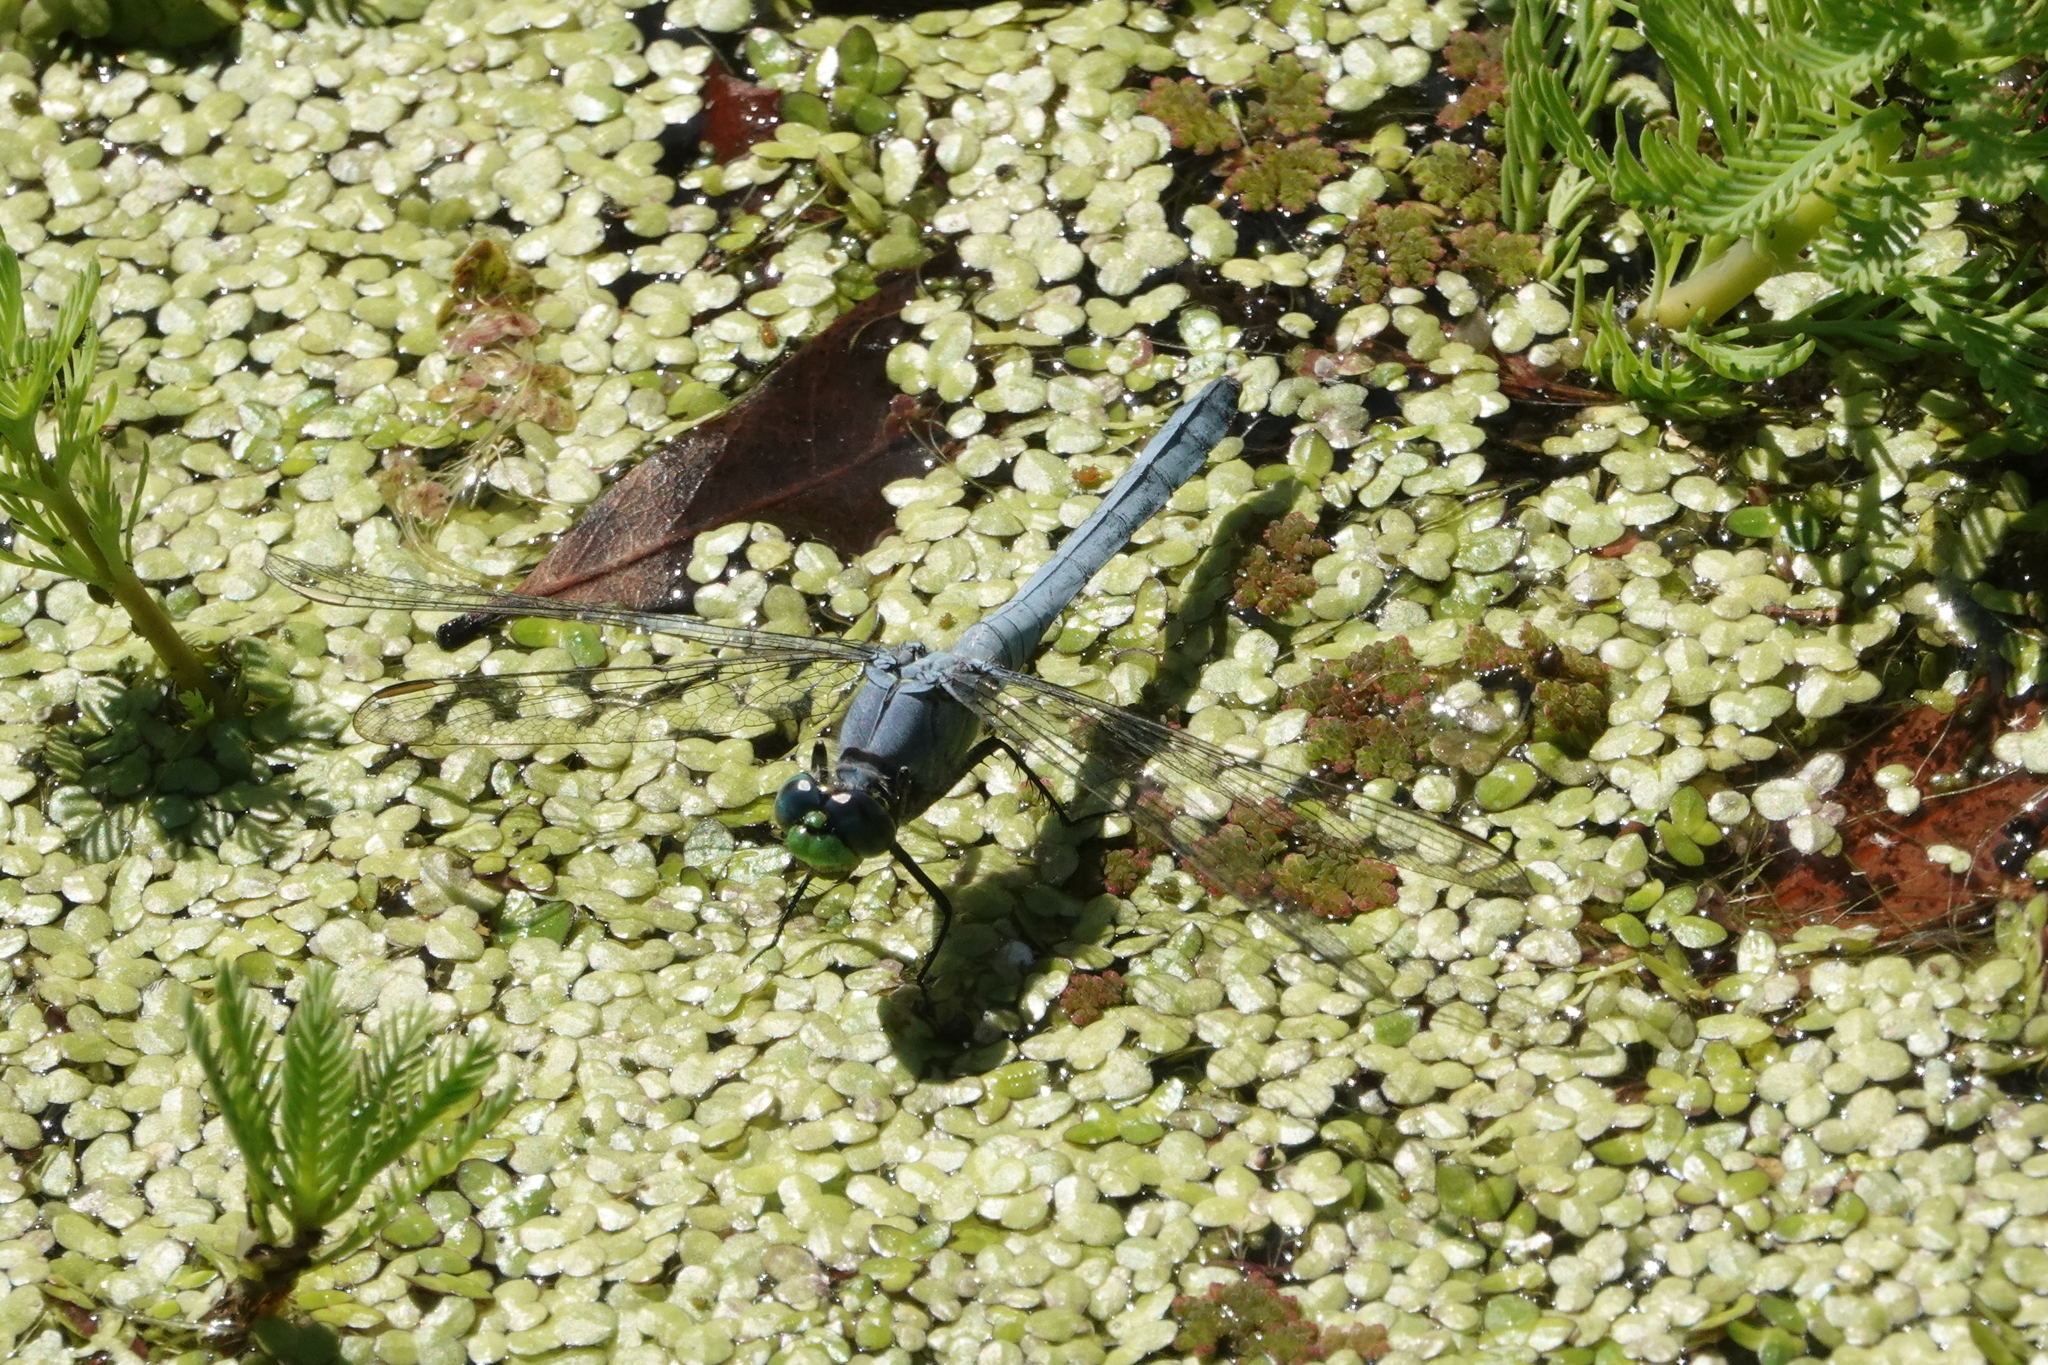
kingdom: Animalia
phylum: Arthropoda
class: Insecta
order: Odonata
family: Libellulidae
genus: Erythemis
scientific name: Erythemis simplicicollis
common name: Eastern pondhawk
